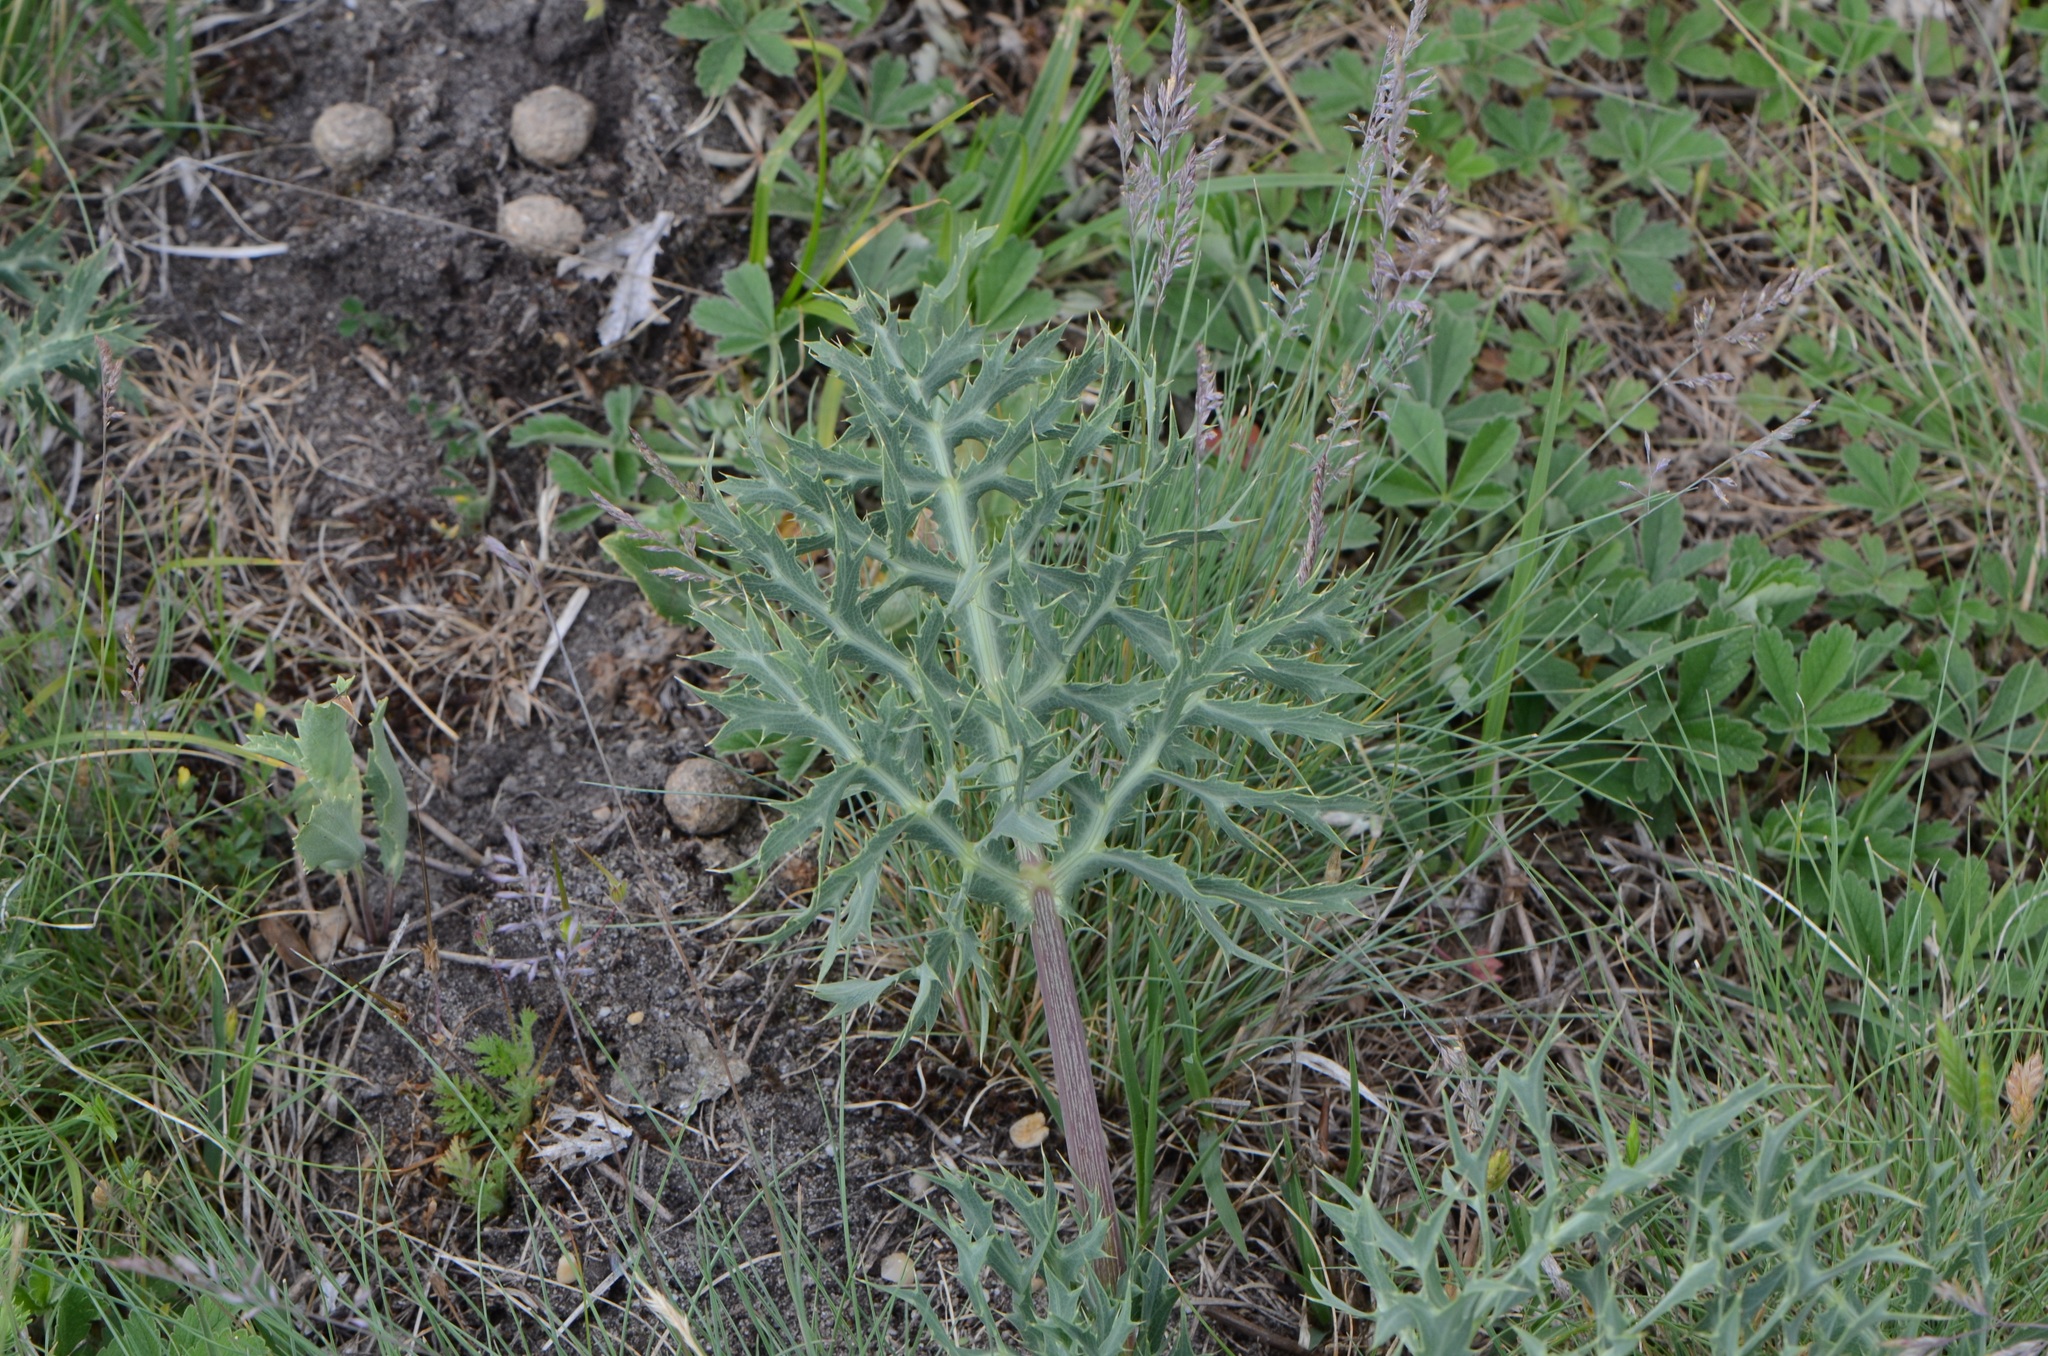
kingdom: Plantae
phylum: Tracheophyta
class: Magnoliopsida
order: Apiales
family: Apiaceae
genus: Eryngium
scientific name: Eryngium campestre
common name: Field eryngo
